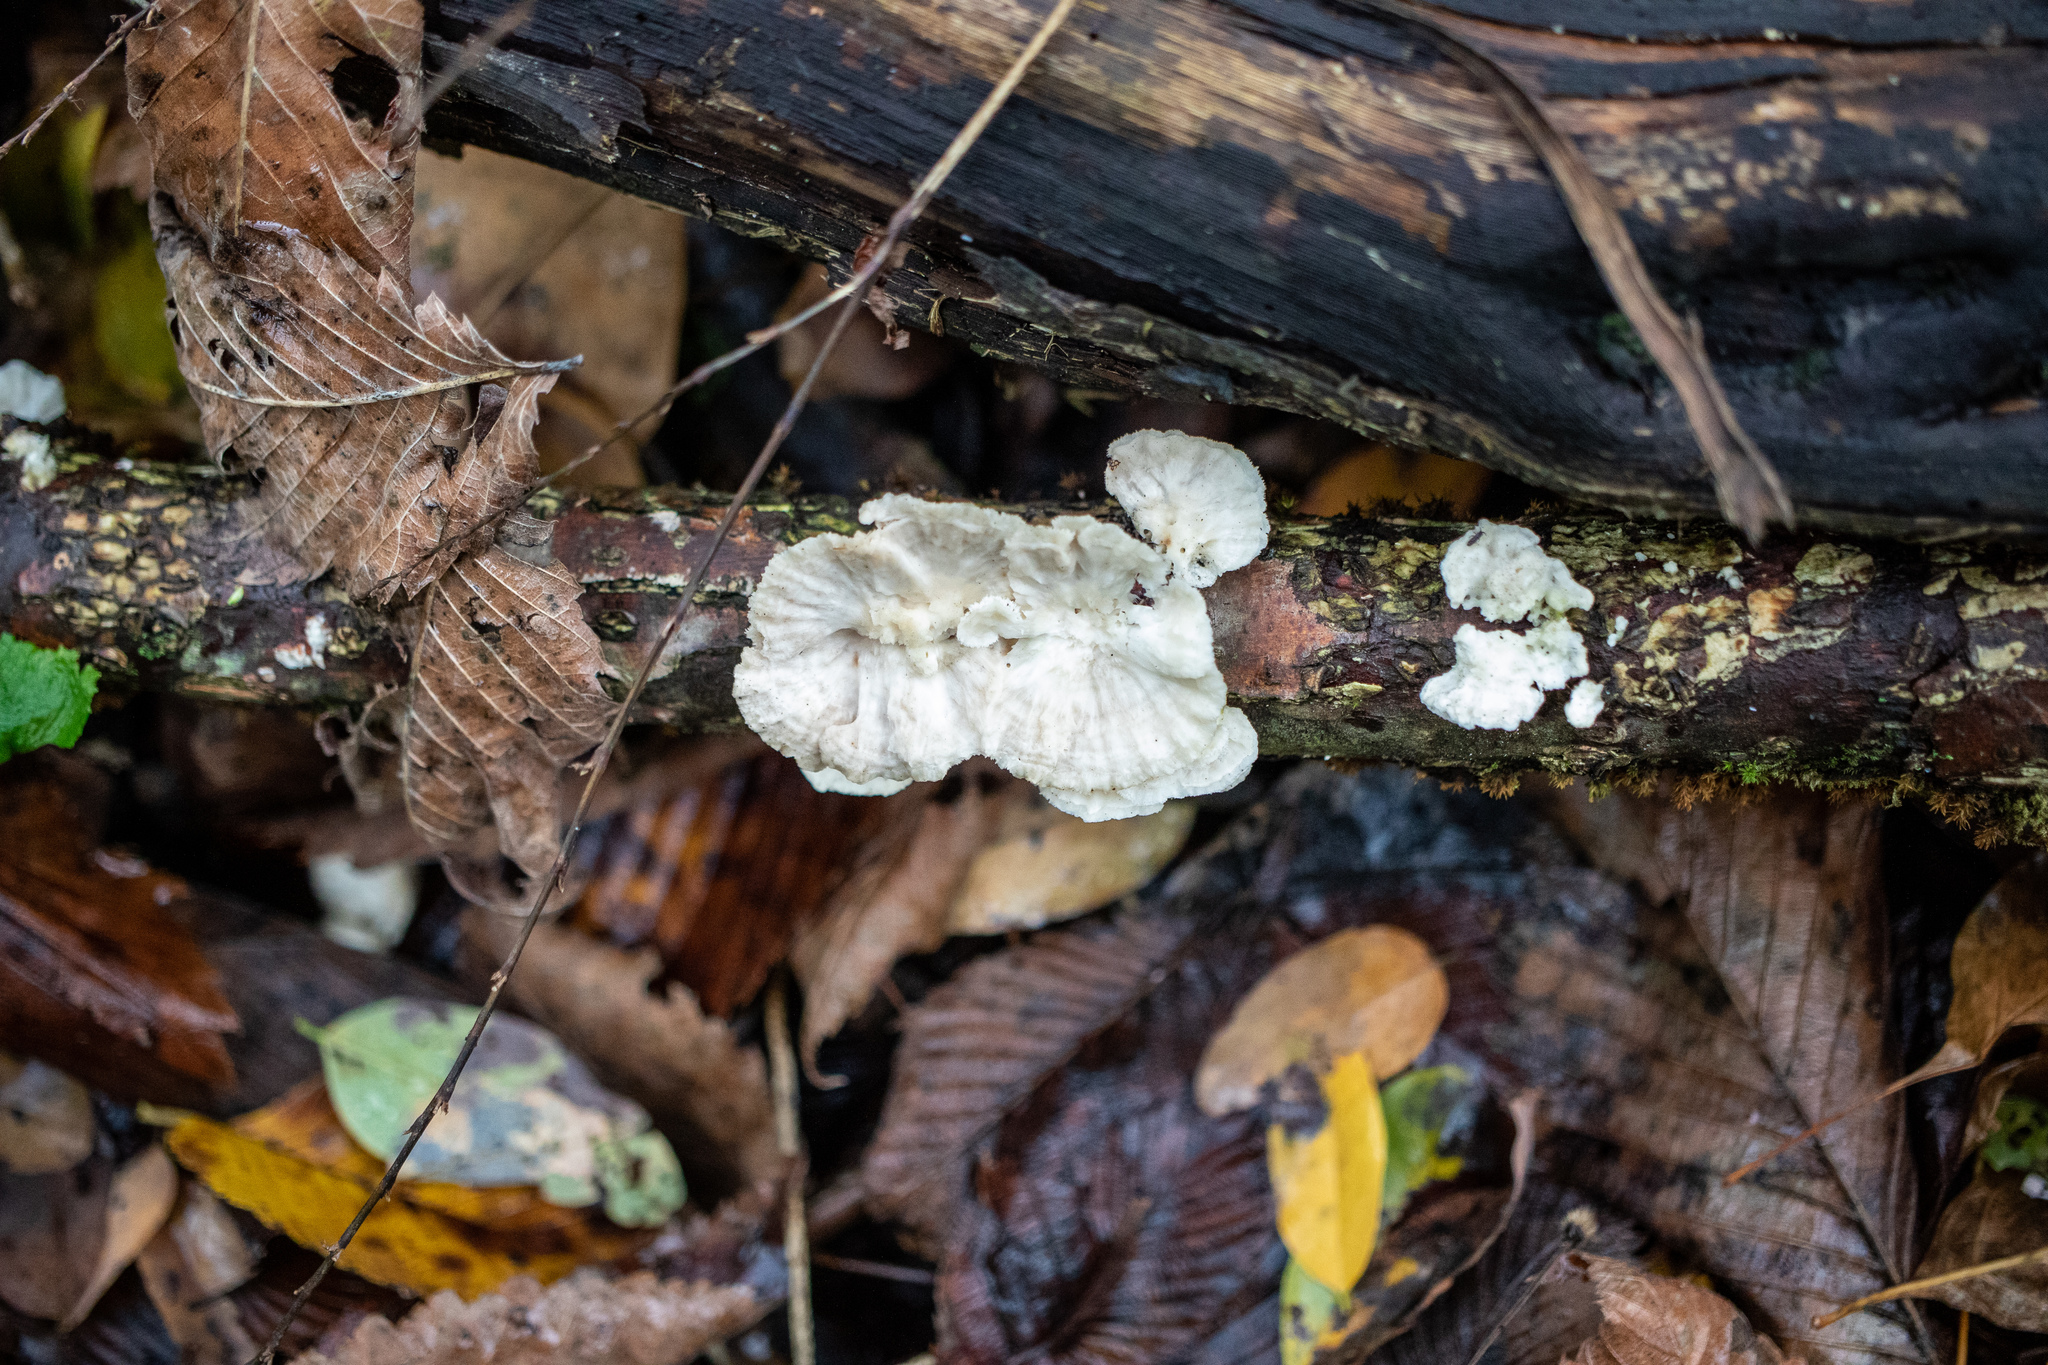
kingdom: Fungi
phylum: Basidiomycota
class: Agaricomycetes
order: Polyporales
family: Meruliaceae
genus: Irpiciporus
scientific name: Irpiciporus pachyodon
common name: Marshmallow polypore
